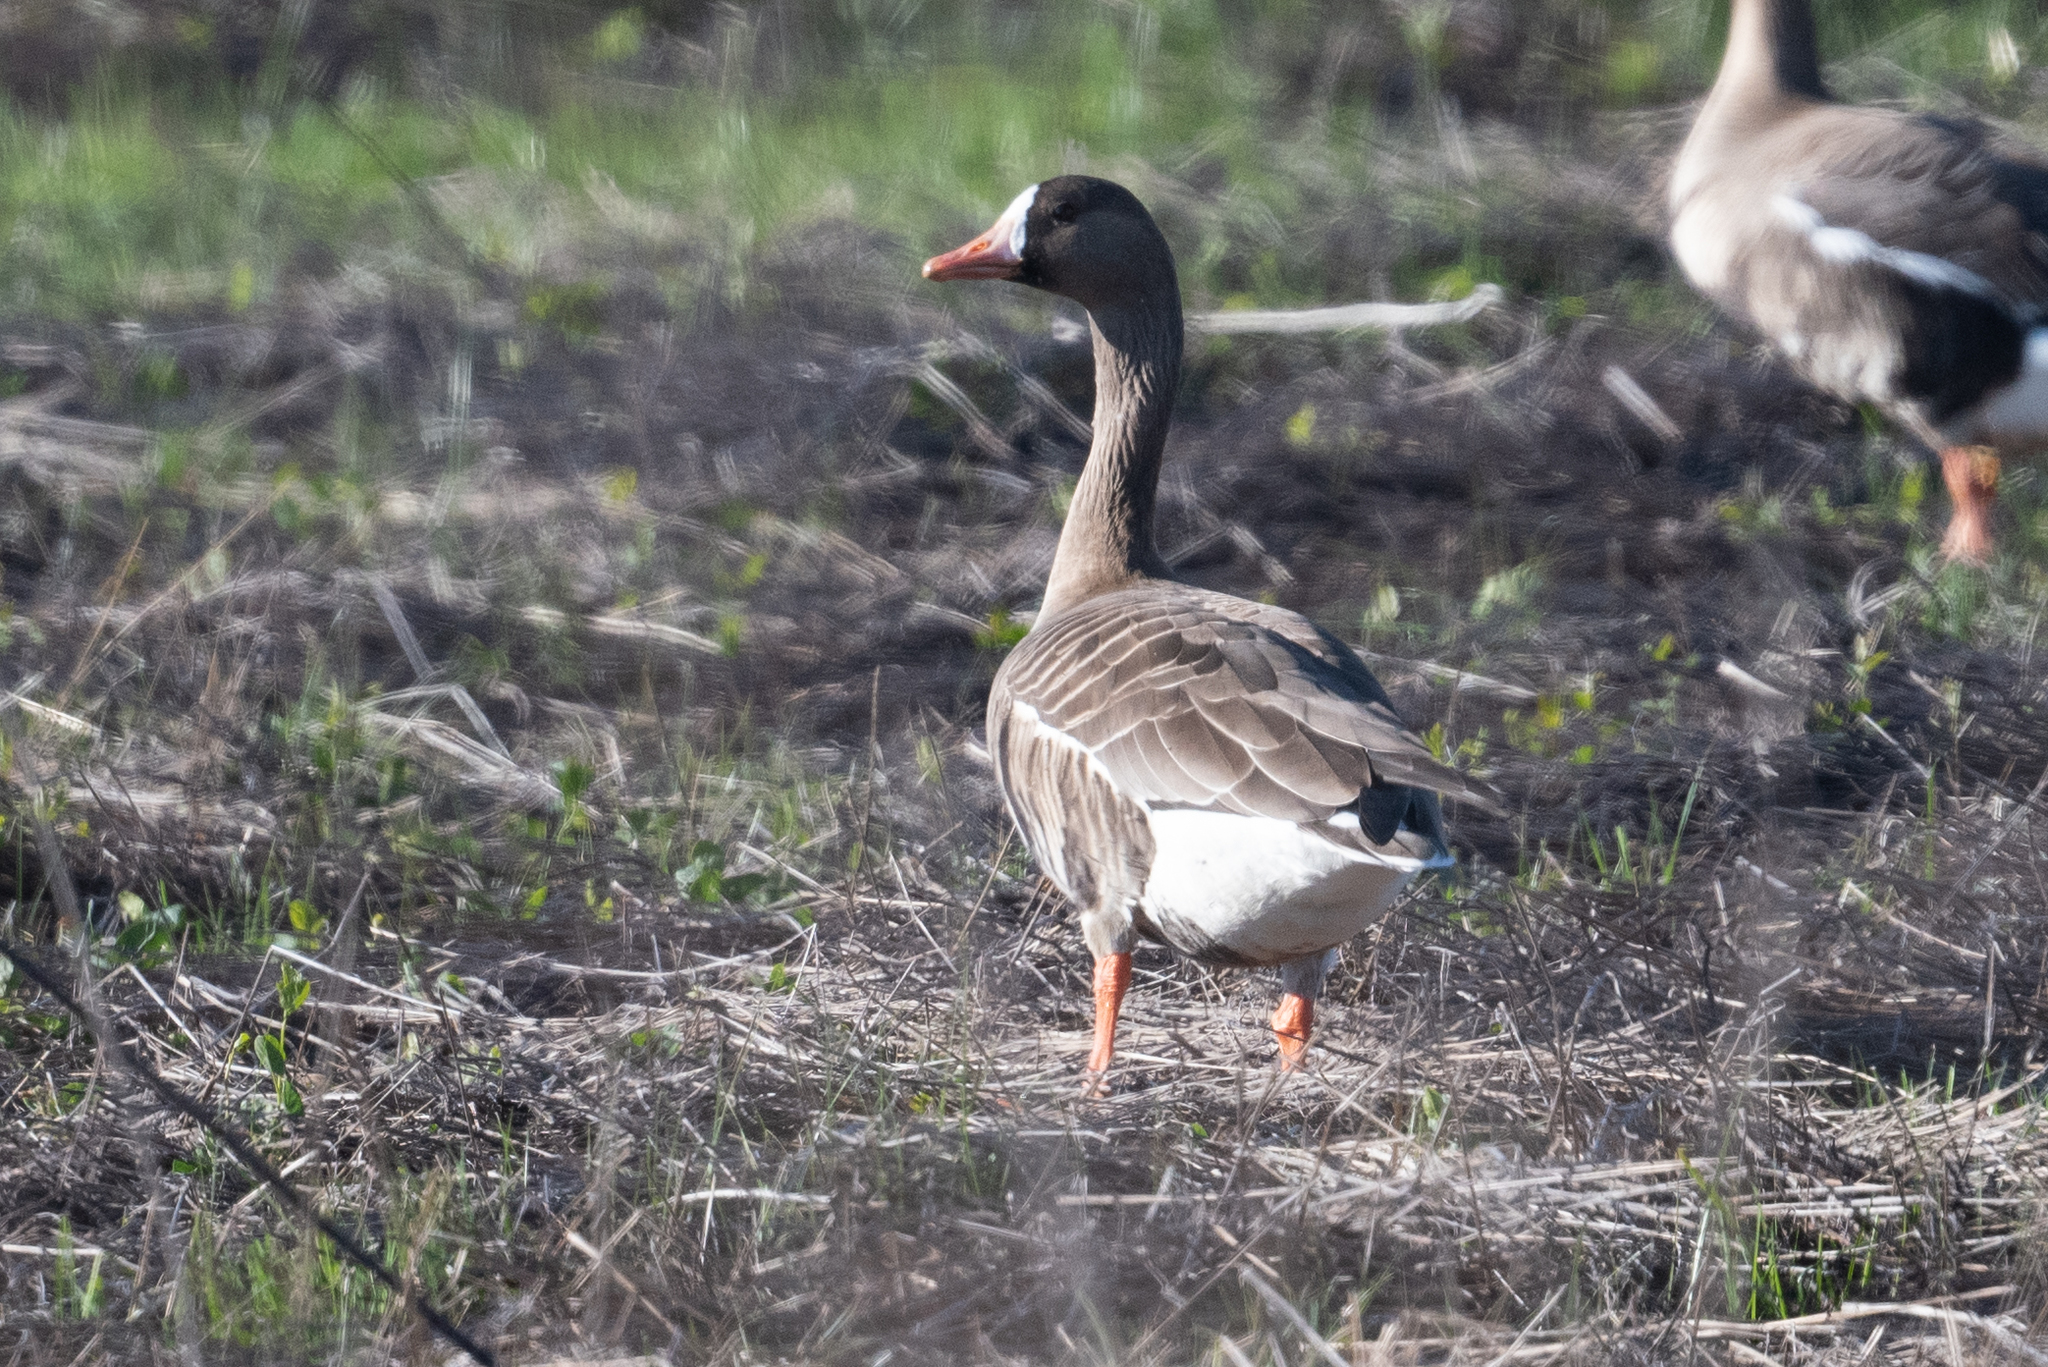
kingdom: Animalia
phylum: Chordata
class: Aves
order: Anseriformes
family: Anatidae
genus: Anser
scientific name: Anser albifrons
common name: Greater white-fronted goose
